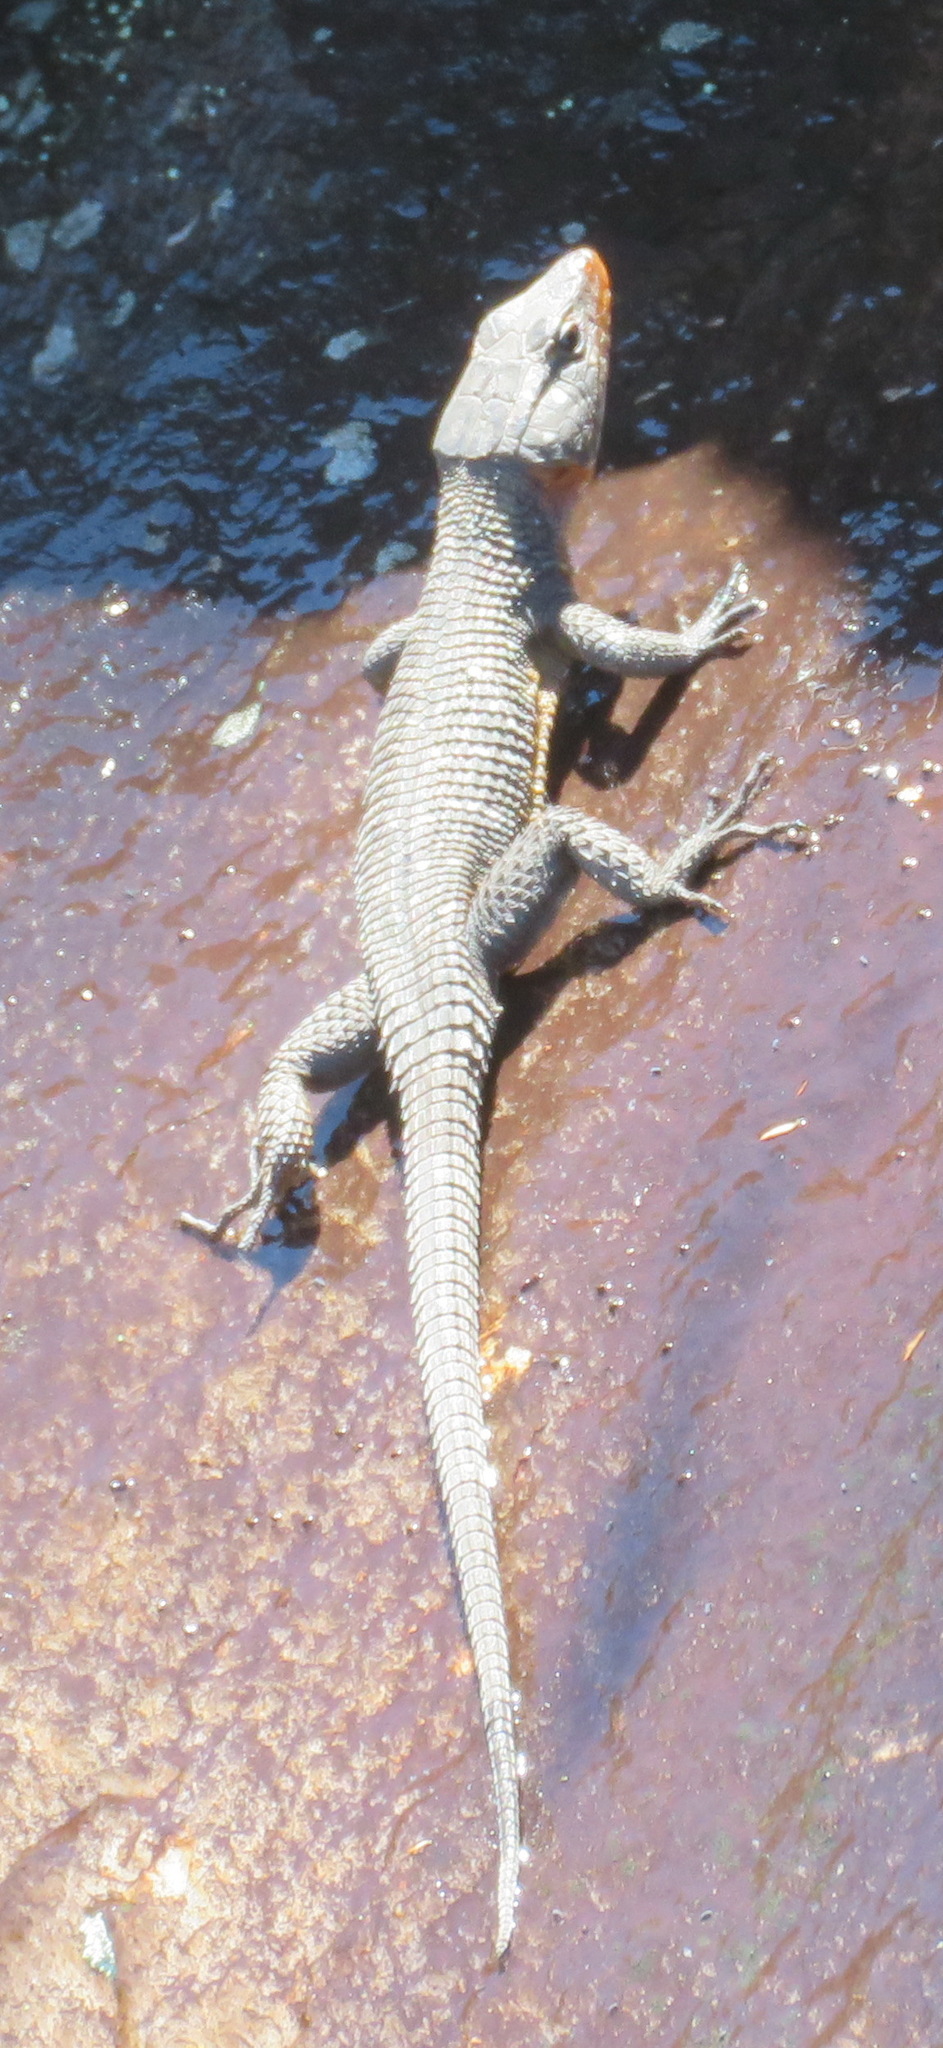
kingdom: Animalia
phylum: Chordata
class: Squamata
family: Cordylidae
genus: Ninurta
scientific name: Ninurta coeruleopunctatus
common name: Blue-spotted girdled lizard
